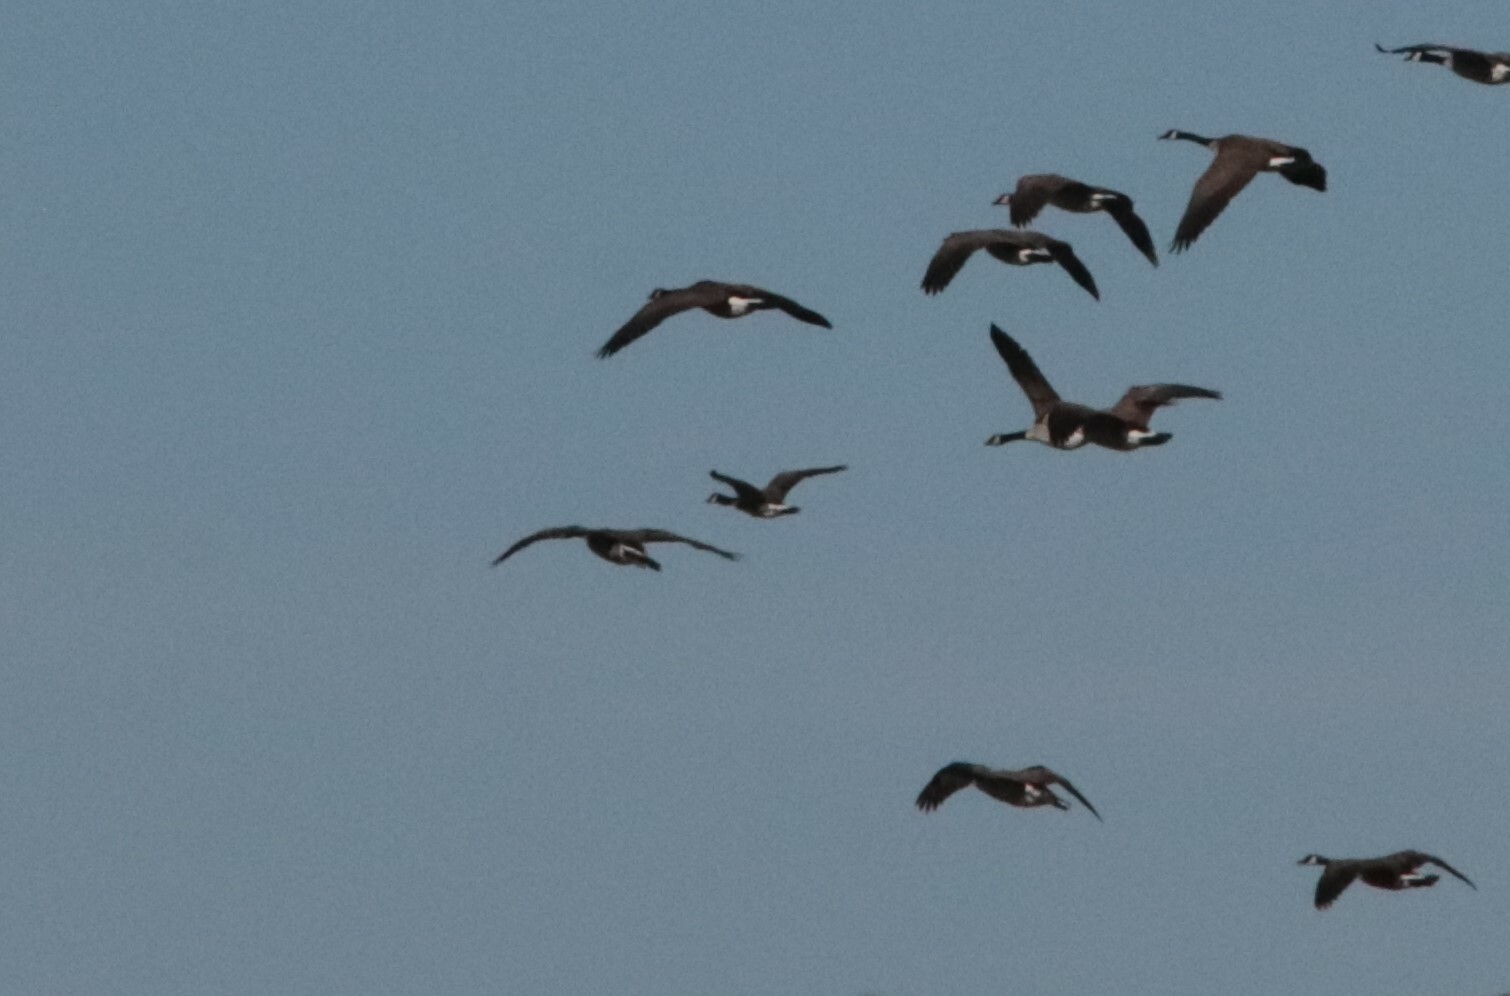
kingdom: Animalia
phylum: Chordata
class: Aves
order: Anseriformes
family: Anatidae
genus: Branta
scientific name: Branta hutchinsii
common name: Cackling goose
